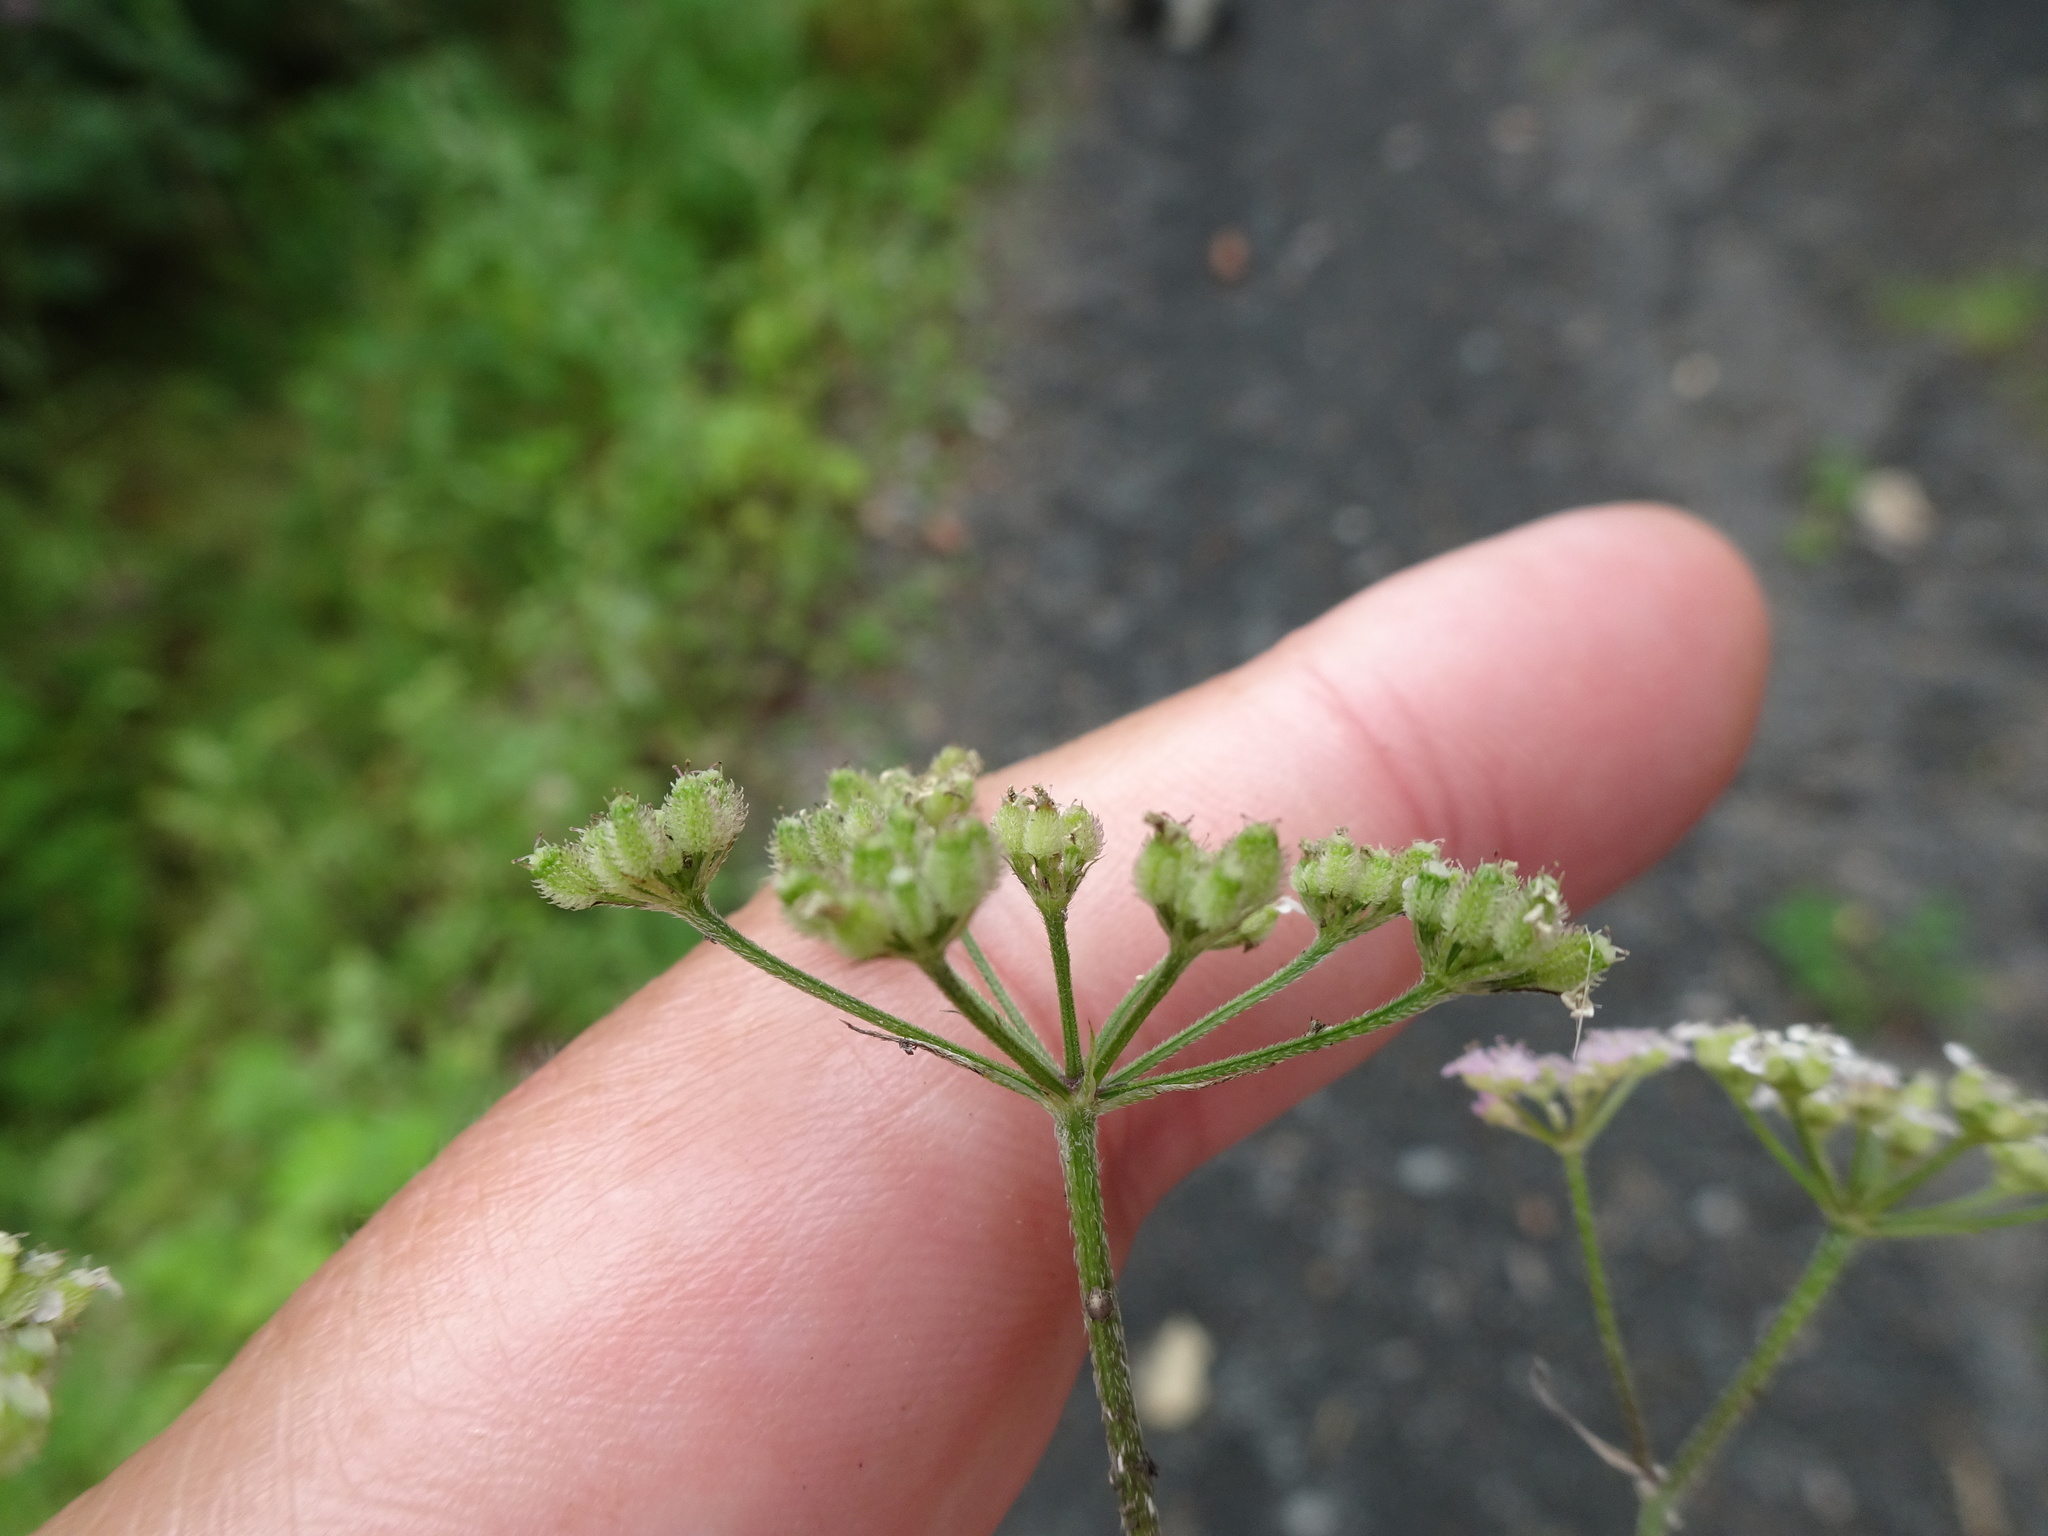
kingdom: Plantae
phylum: Tracheophyta
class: Magnoliopsida
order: Apiales
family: Apiaceae
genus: Torilis
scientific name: Torilis japonica
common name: Upright hedge-parsley
